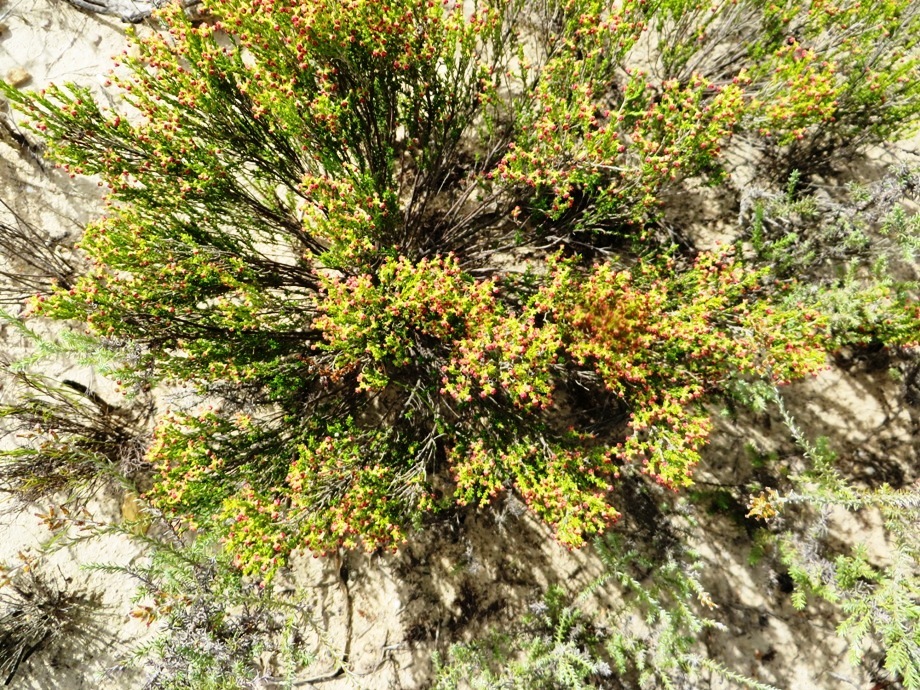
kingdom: Plantae
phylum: Tracheophyta
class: Magnoliopsida
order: Ericales
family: Ericaceae
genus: Erica
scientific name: Erica maritima
